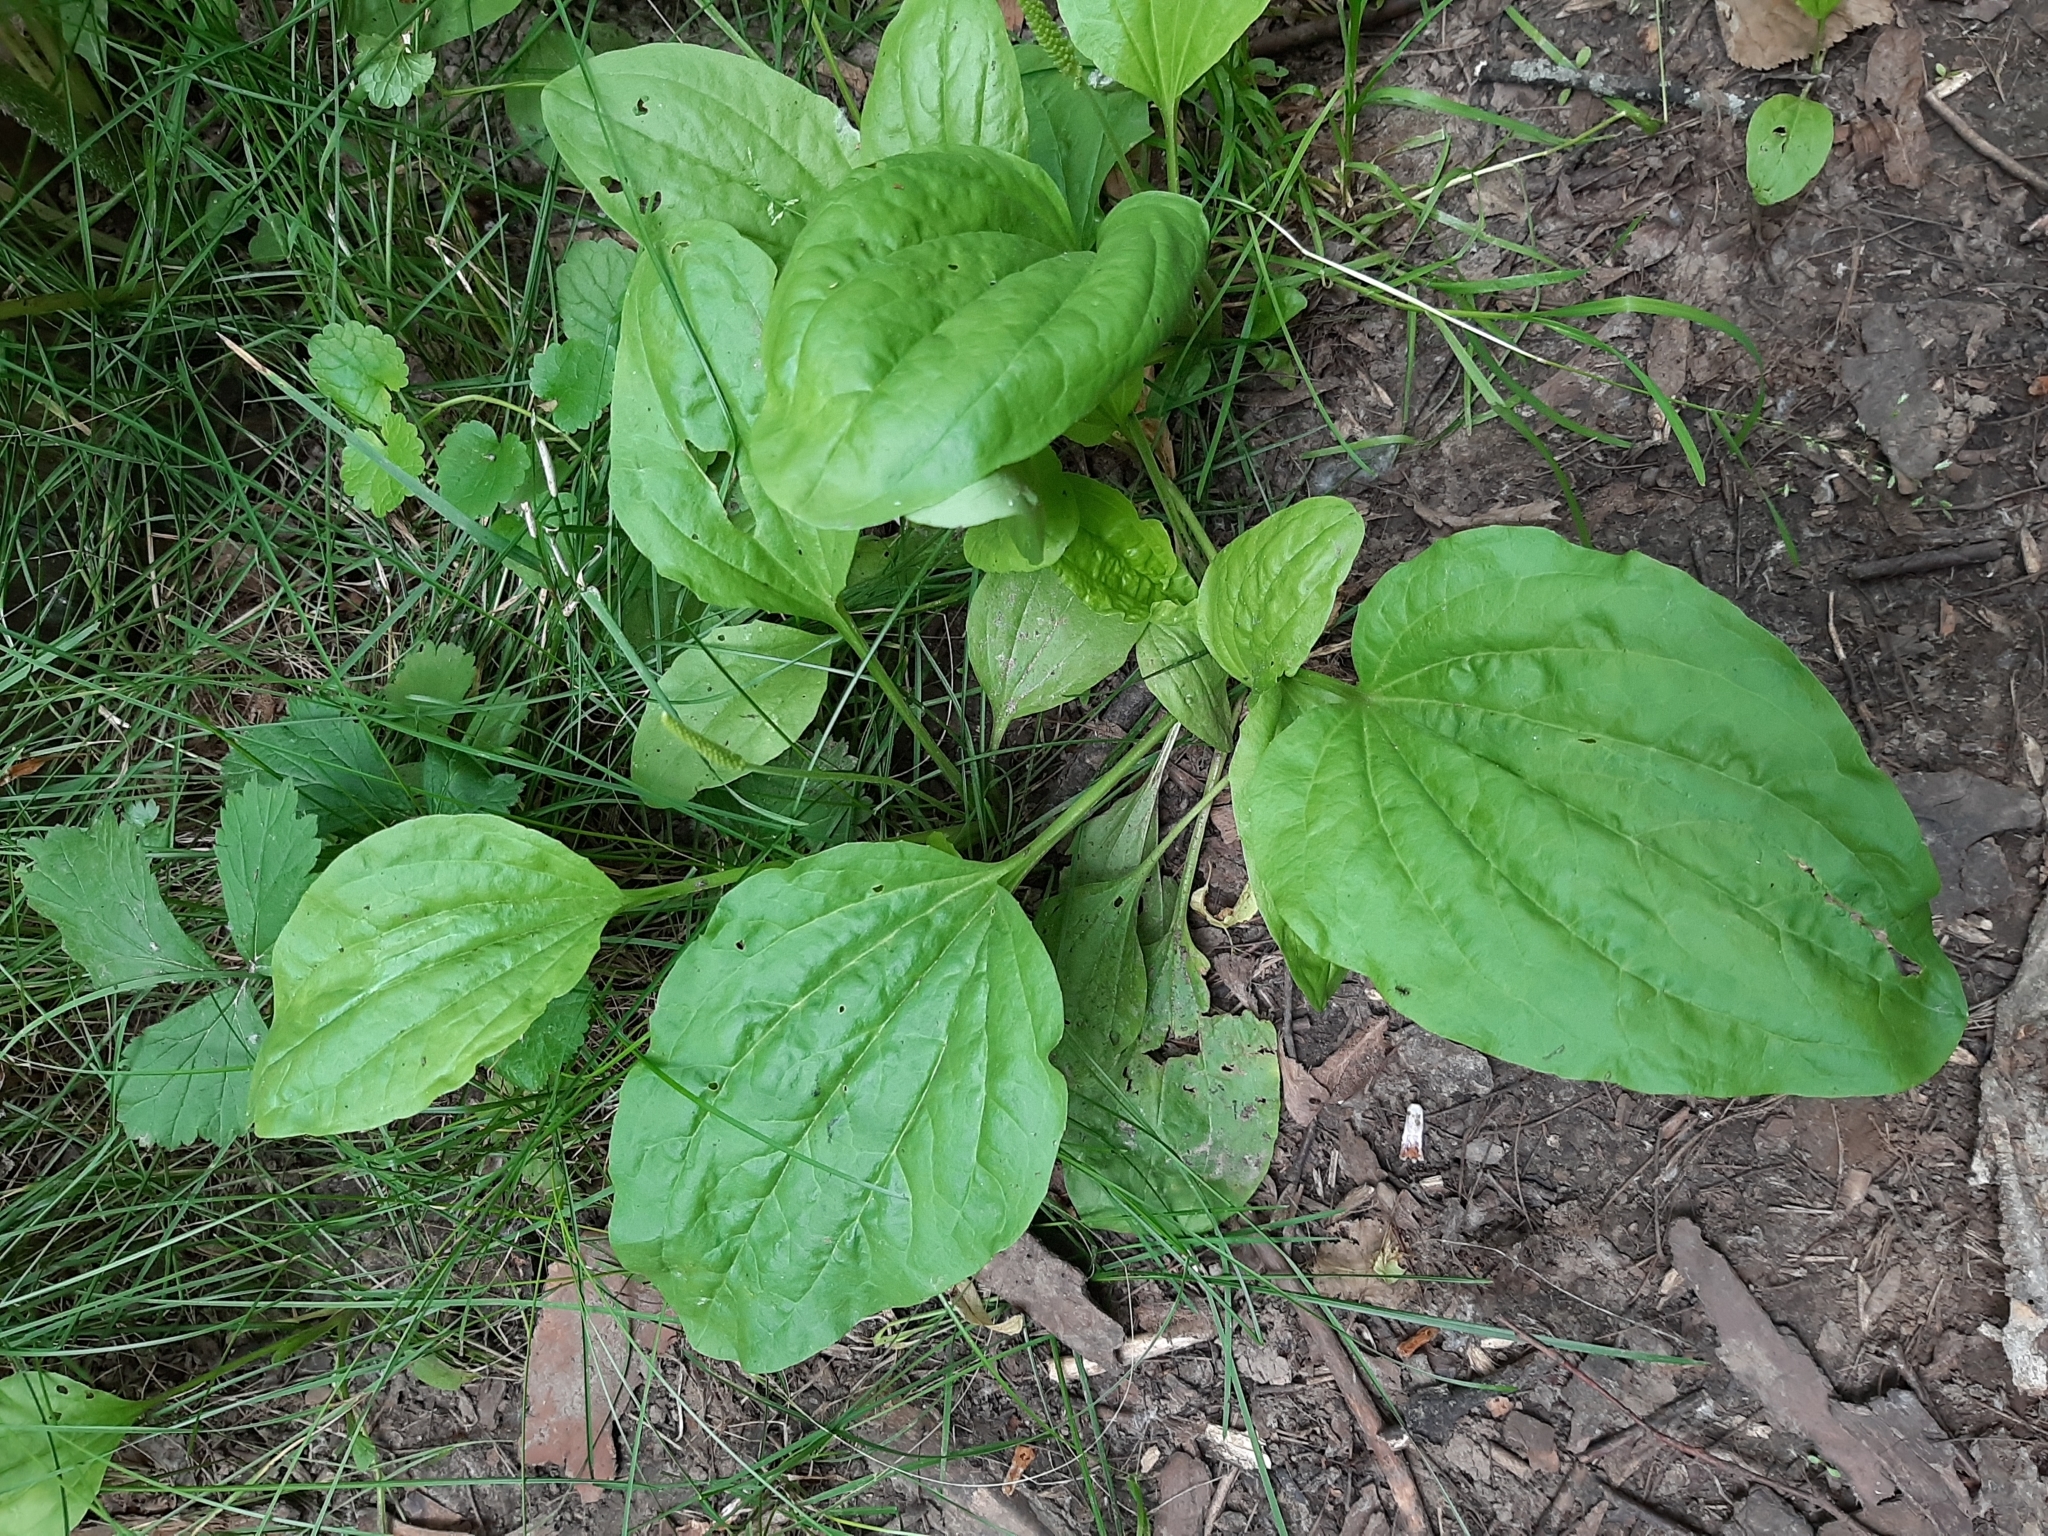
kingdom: Plantae
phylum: Tracheophyta
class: Magnoliopsida
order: Lamiales
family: Plantaginaceae
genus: Plantago
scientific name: Plantago major
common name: Common plantain
